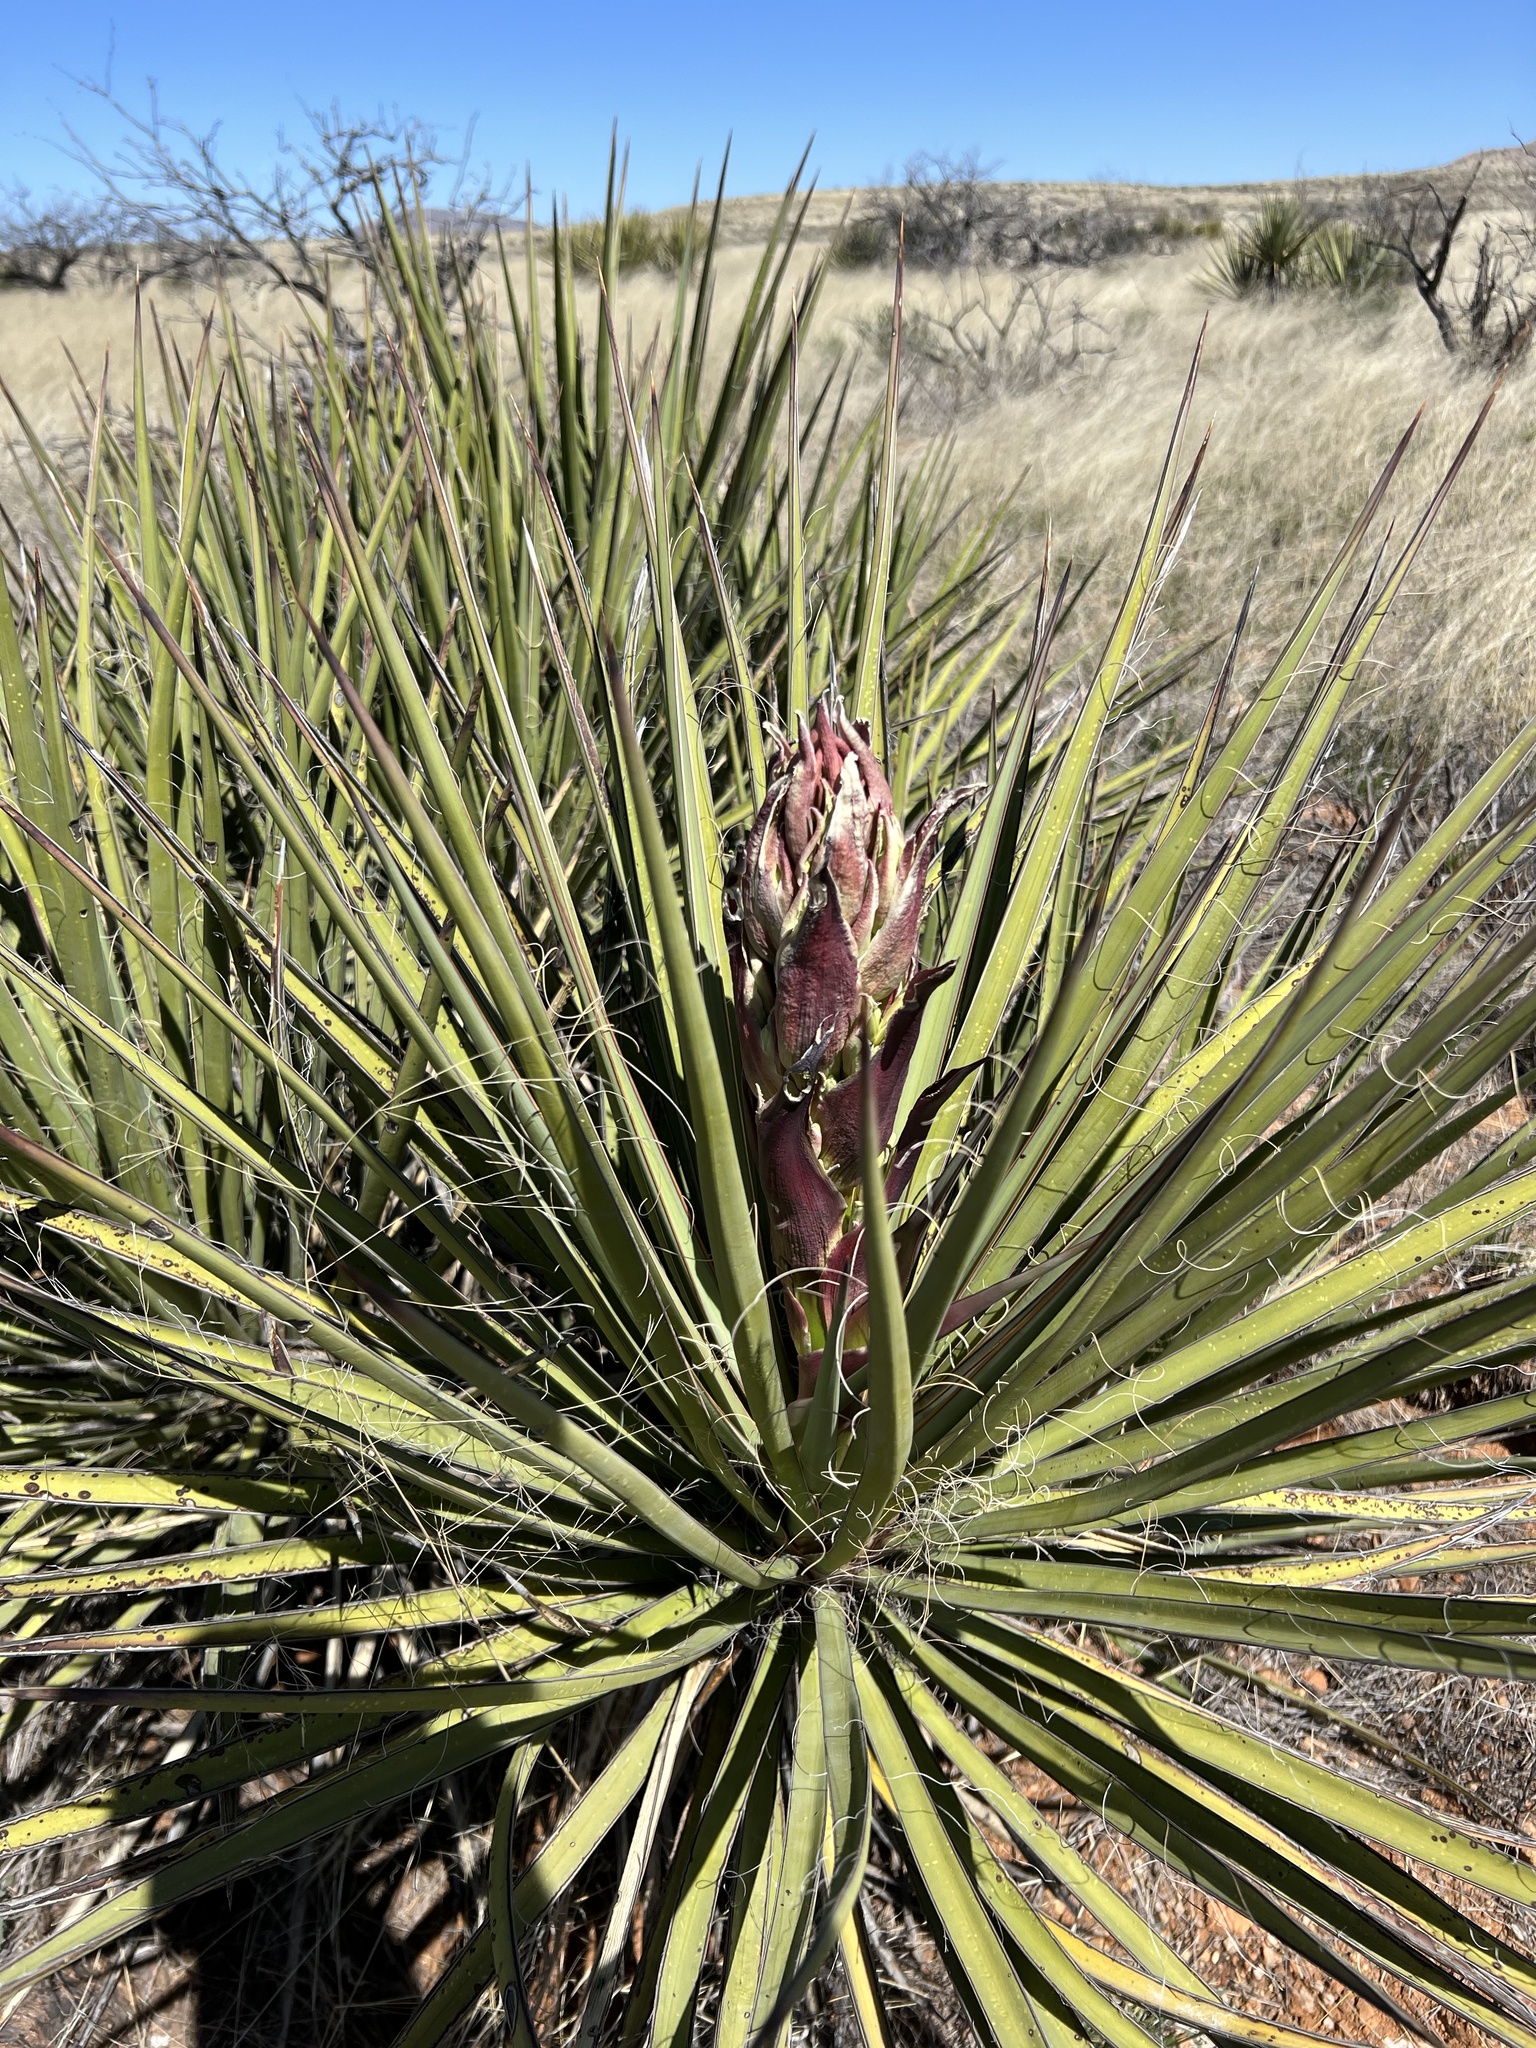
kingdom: Plantae
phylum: Tracheophyta
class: Liliopsida
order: Asparagales
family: Asparagaceae
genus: Yucca
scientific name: Yucca baccata
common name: Banana yucca
